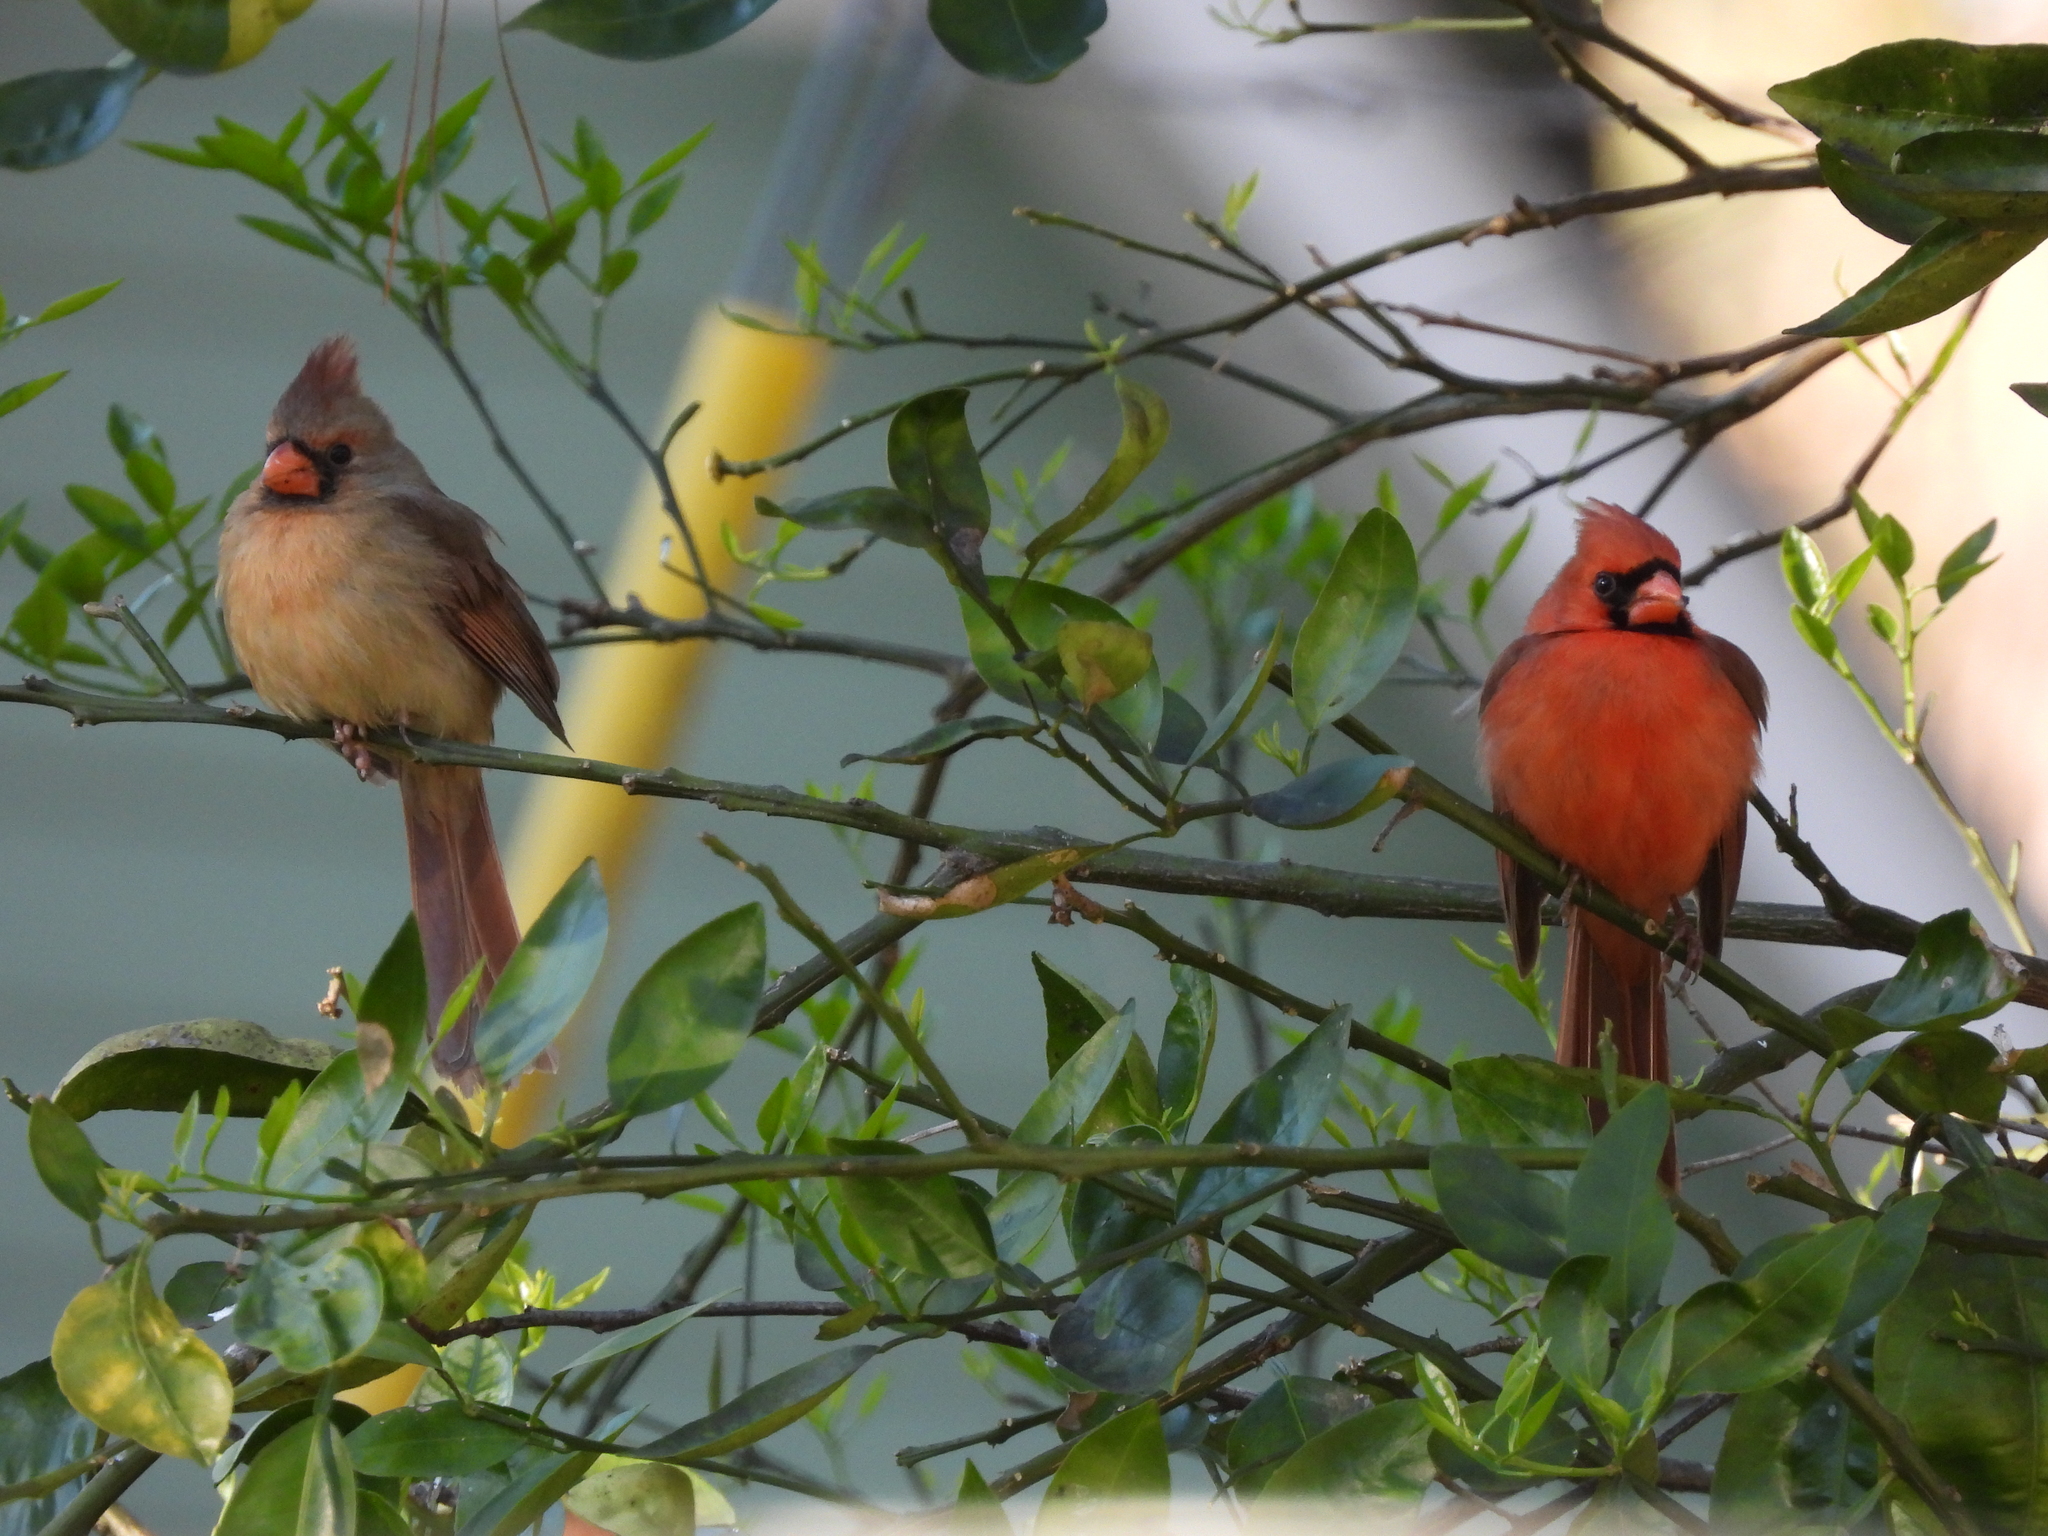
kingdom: Animalia
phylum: Chordata
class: Aves
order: Passeriformes
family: Cardinalidae
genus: Cardinalis
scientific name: Cardinalis cardinalis
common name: Northern cardinal
